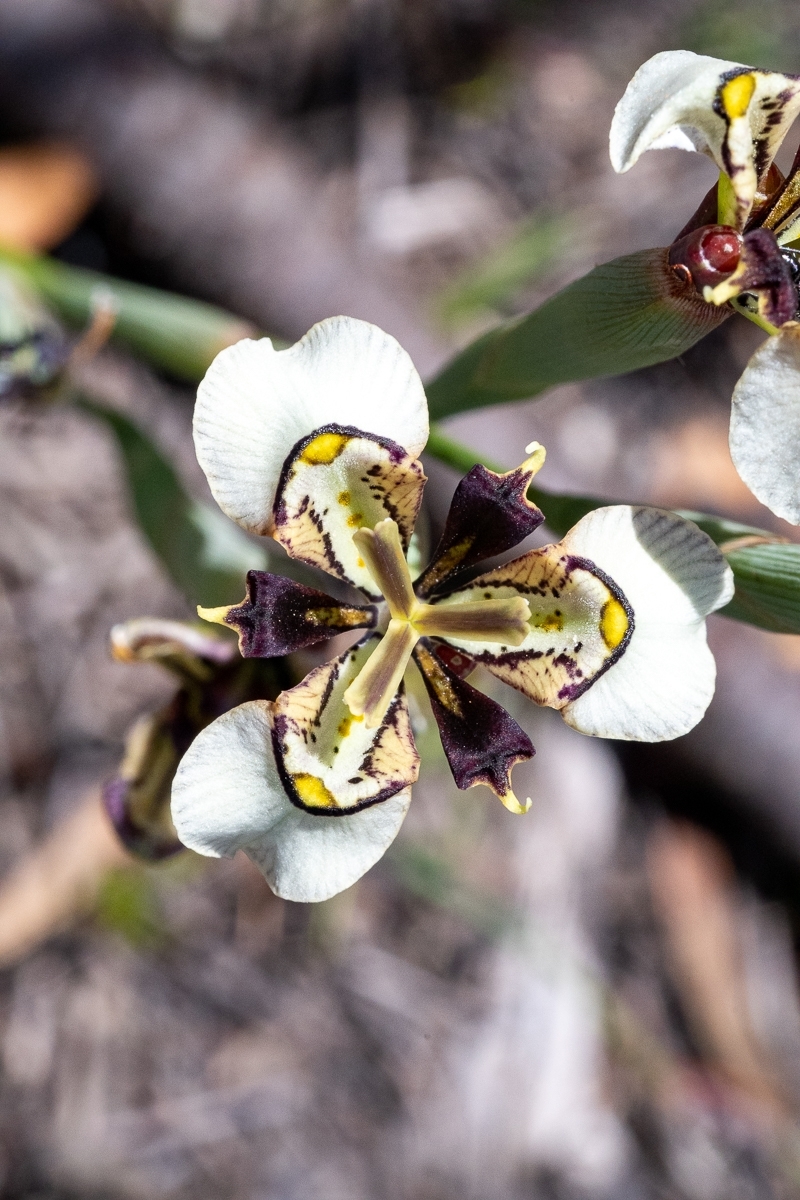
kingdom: Plantae
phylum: Tracheophyta
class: Liliopsida
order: Asparagales
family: Iridaceae
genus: Moraea
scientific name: Moraea unguiculata
